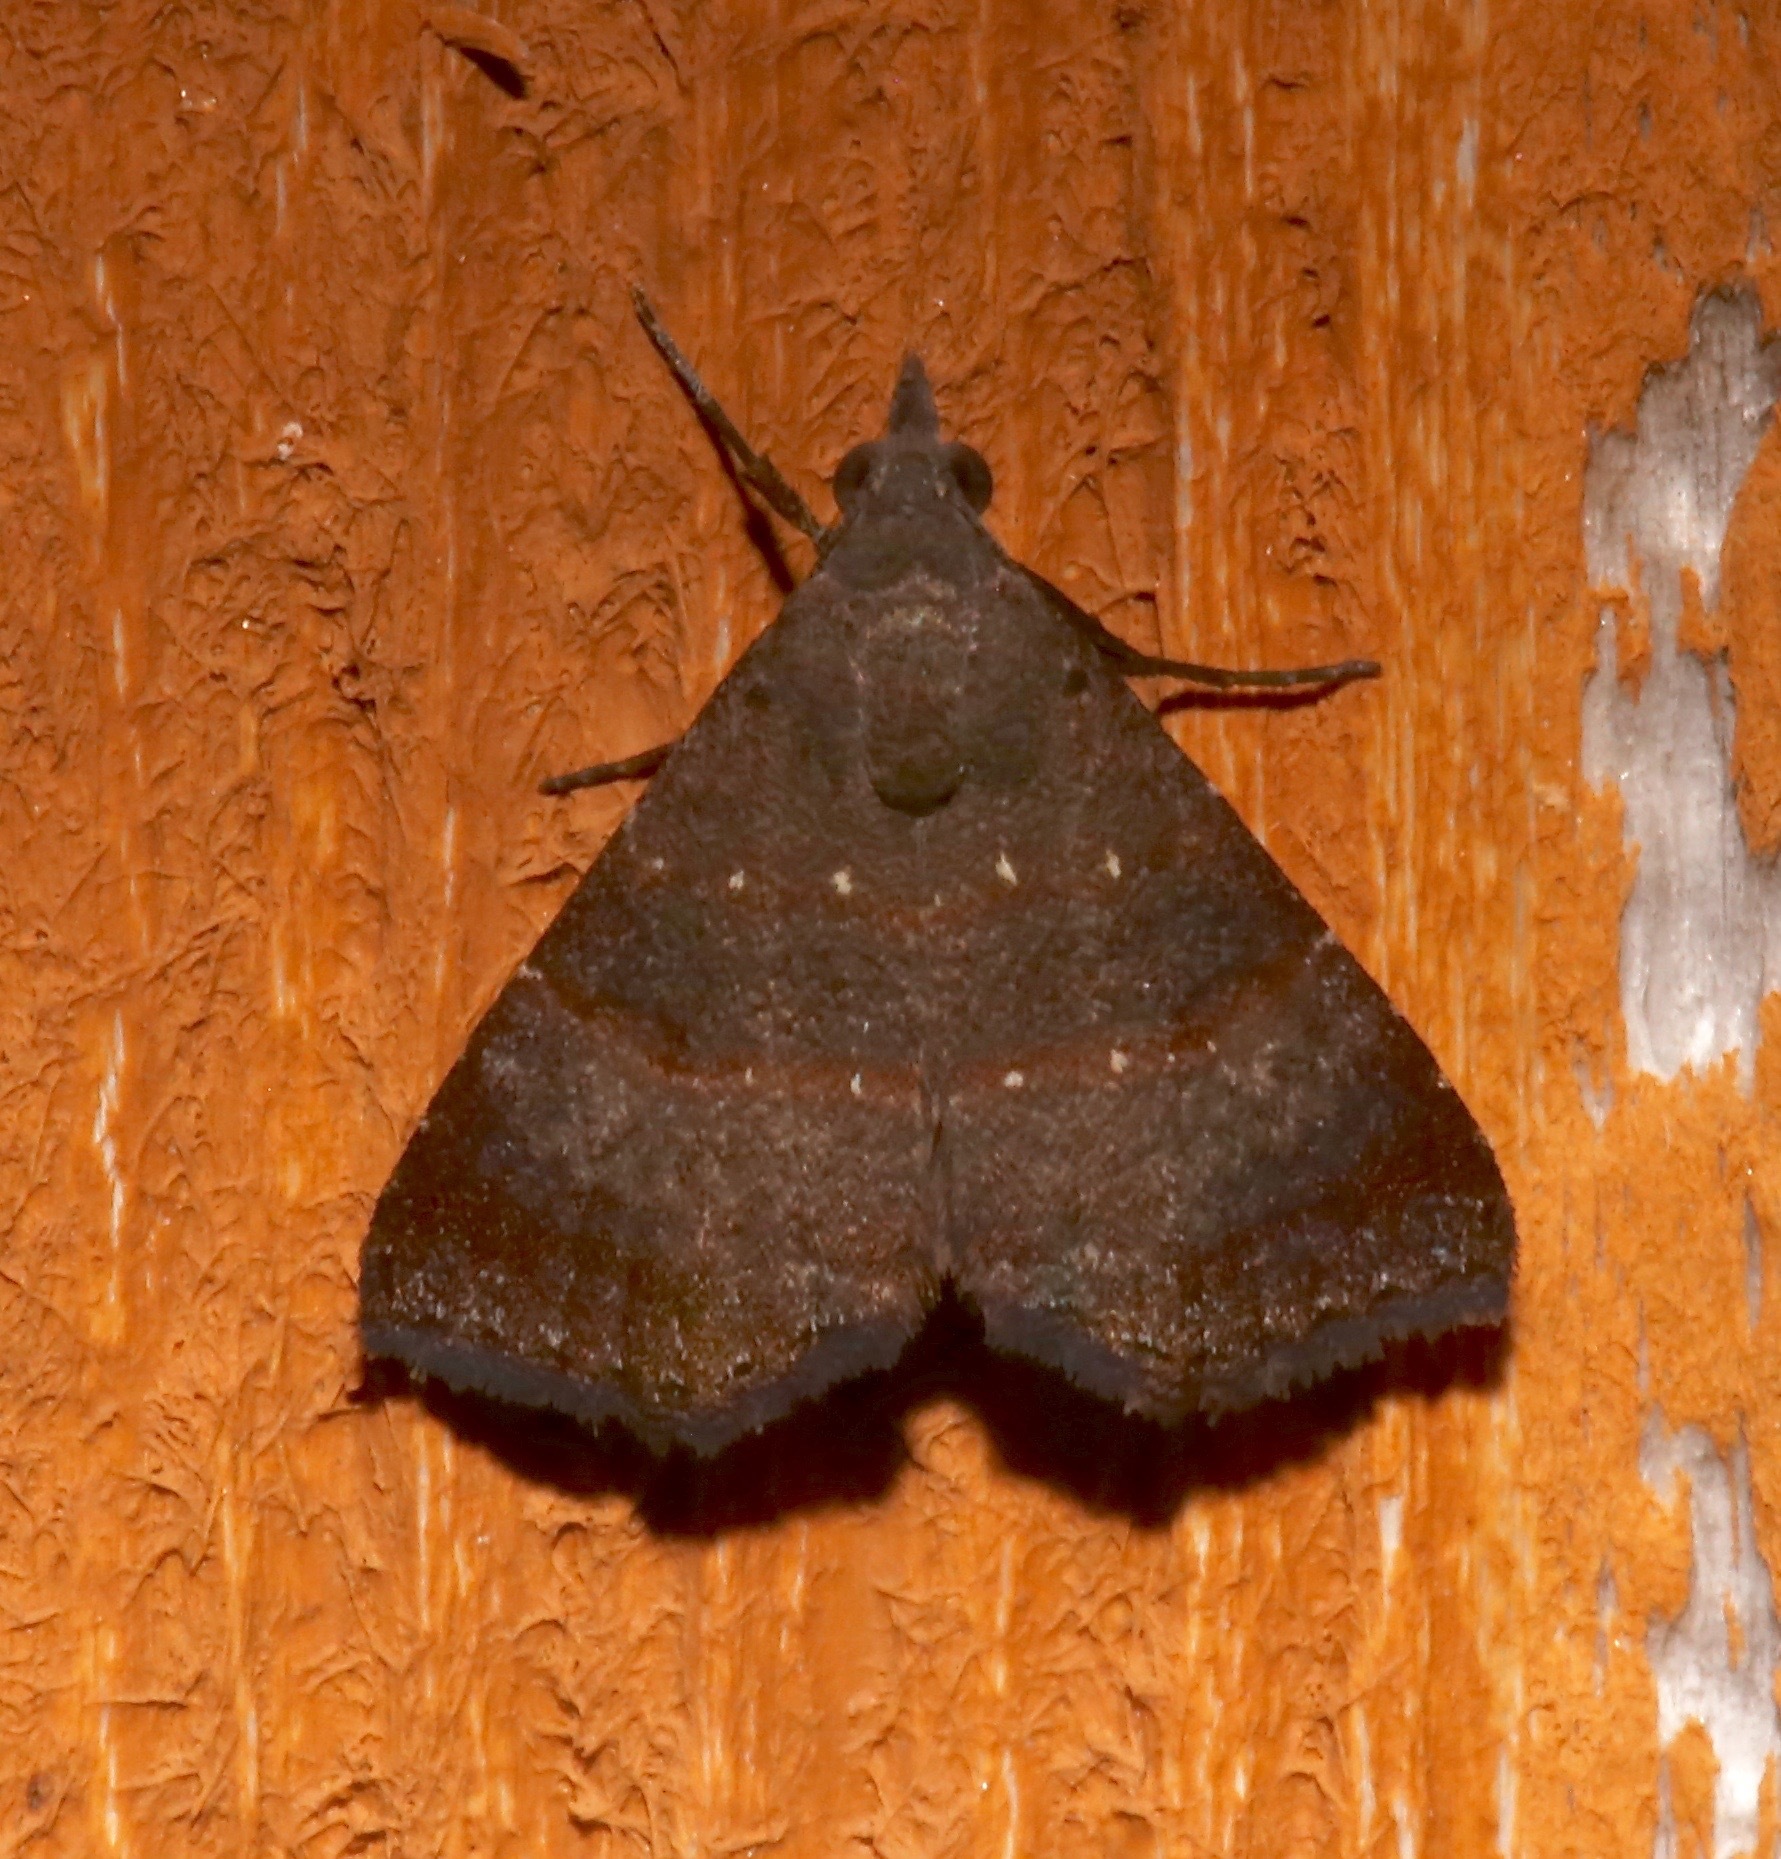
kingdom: Animalia
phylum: Arthropoda
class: Insecta
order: Lepidoptera
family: Noctuidae
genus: Hormoschista
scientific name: Hormoschista latipalpis
